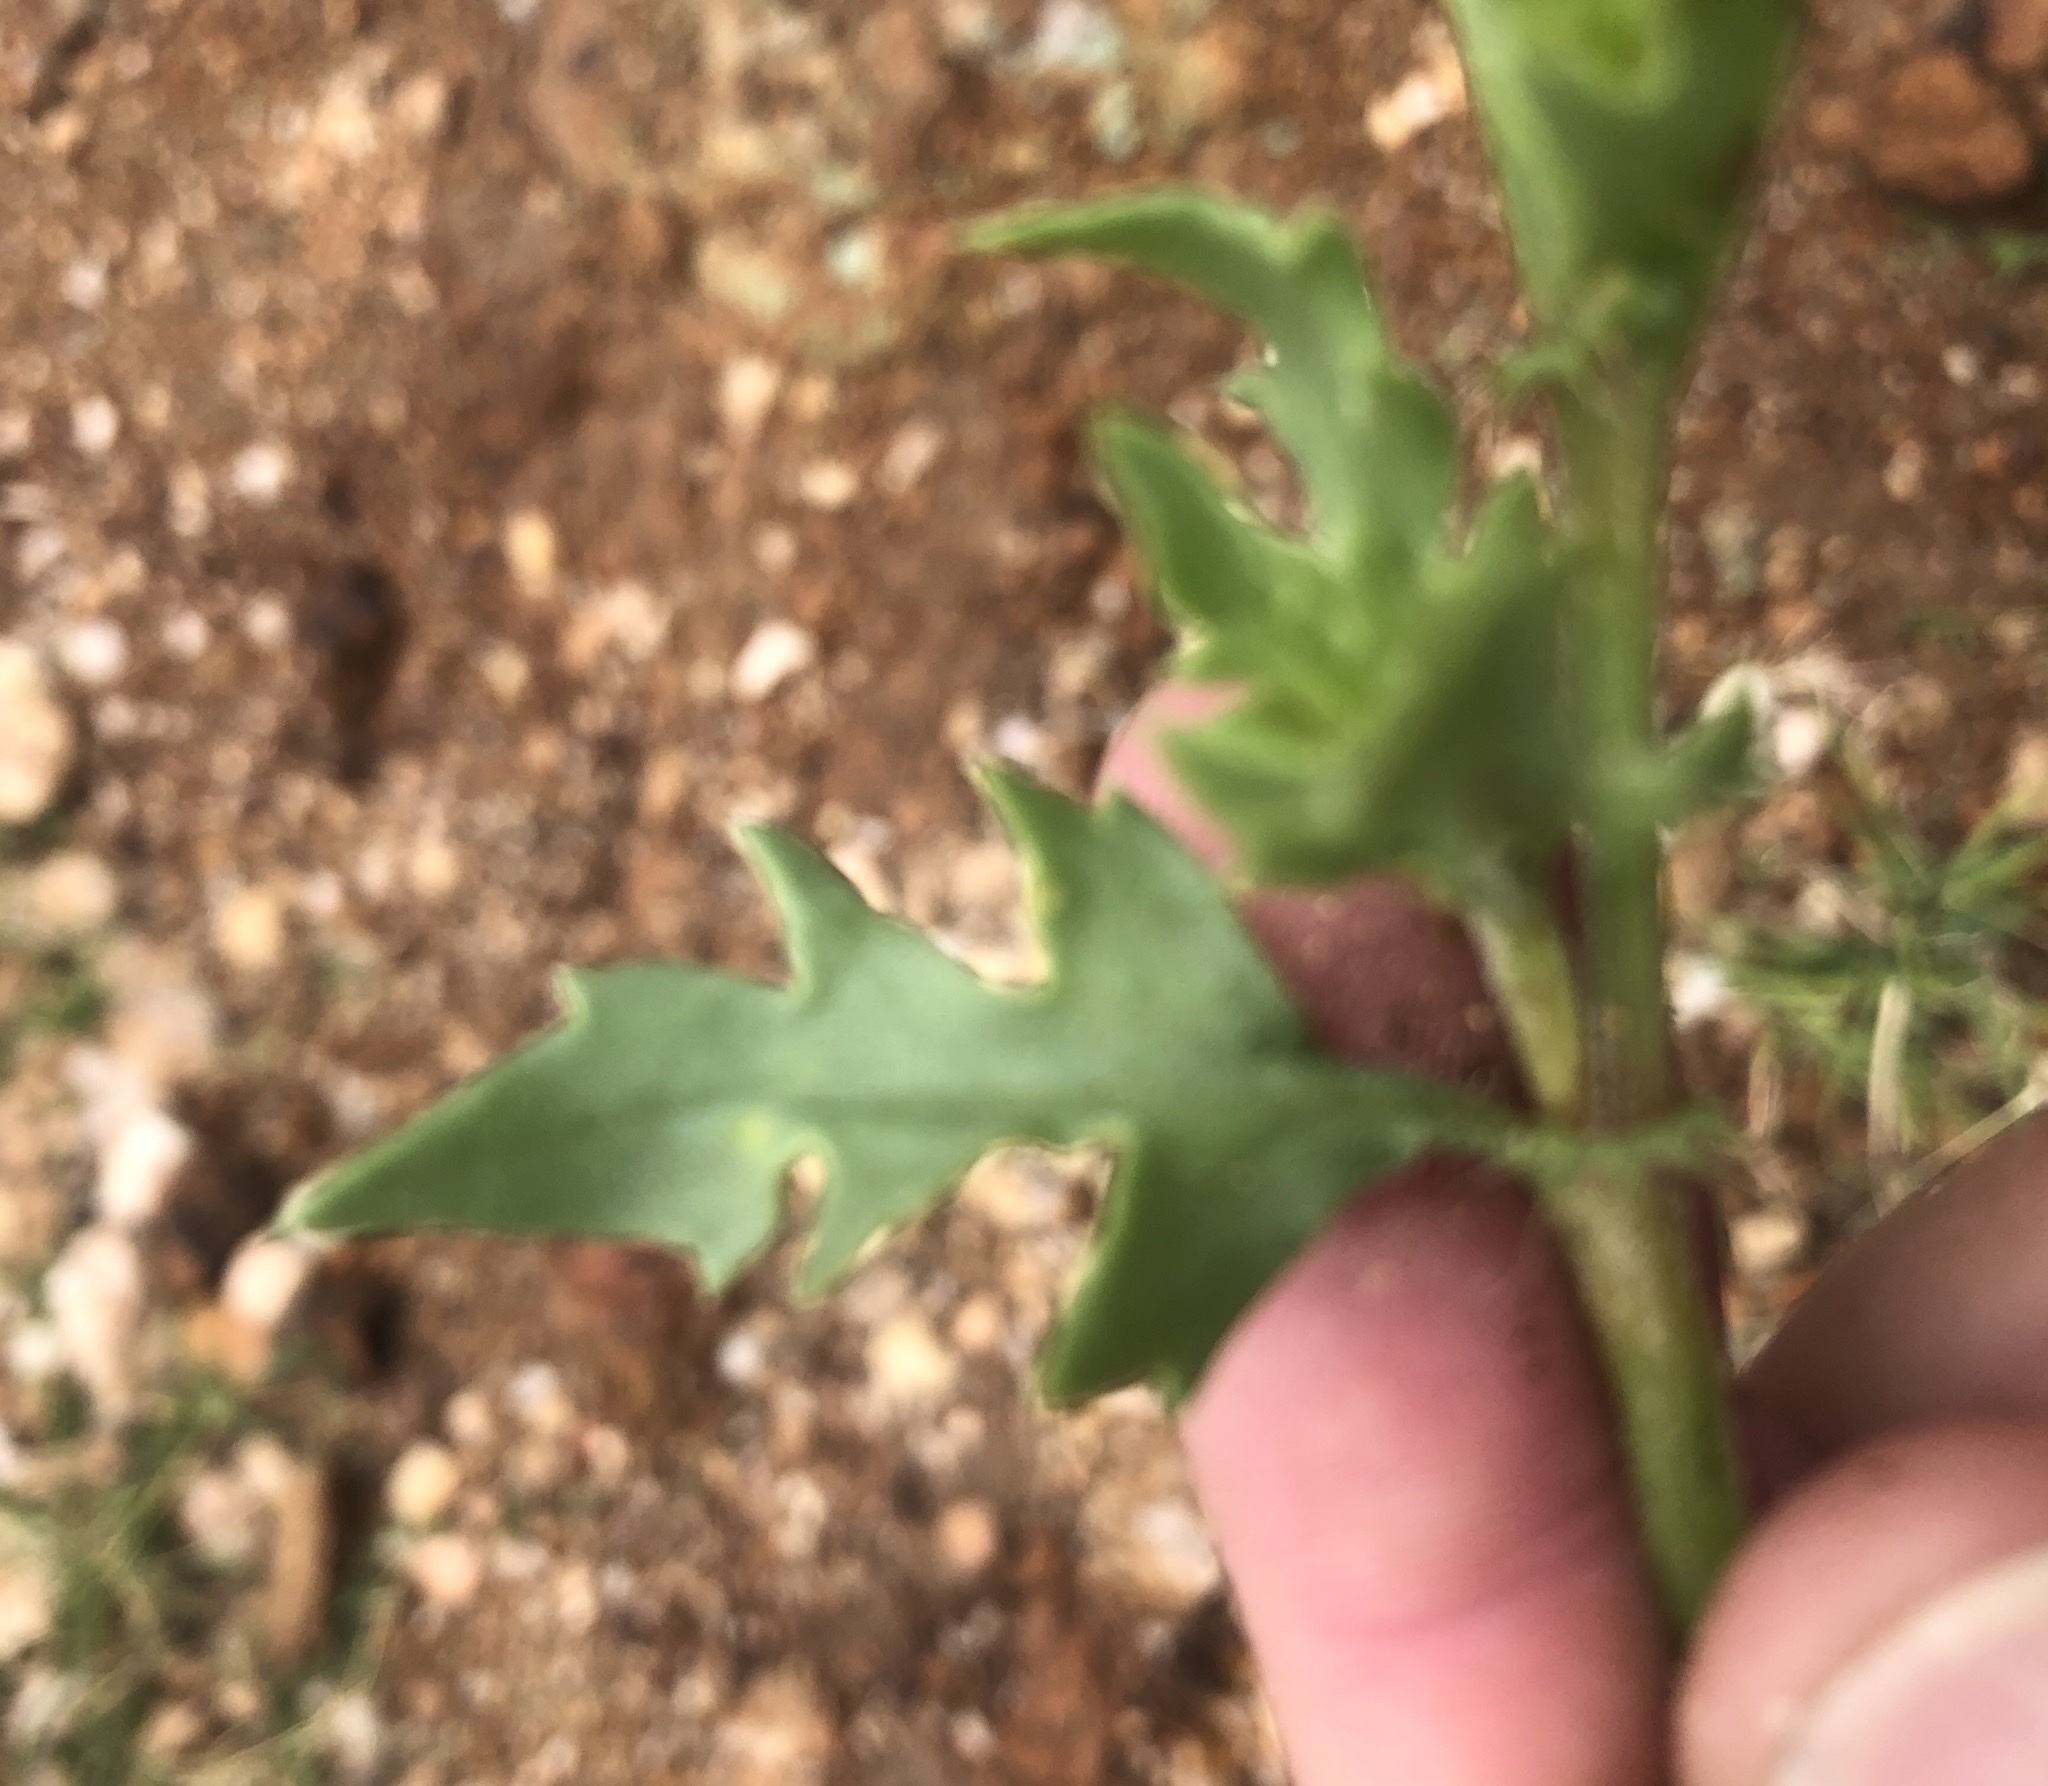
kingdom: Plantae
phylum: Tracheophyta
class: Magnoliopsida
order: Caryophyllales
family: Polygonaceae
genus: Oxygonum
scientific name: Oxygonum alatum
